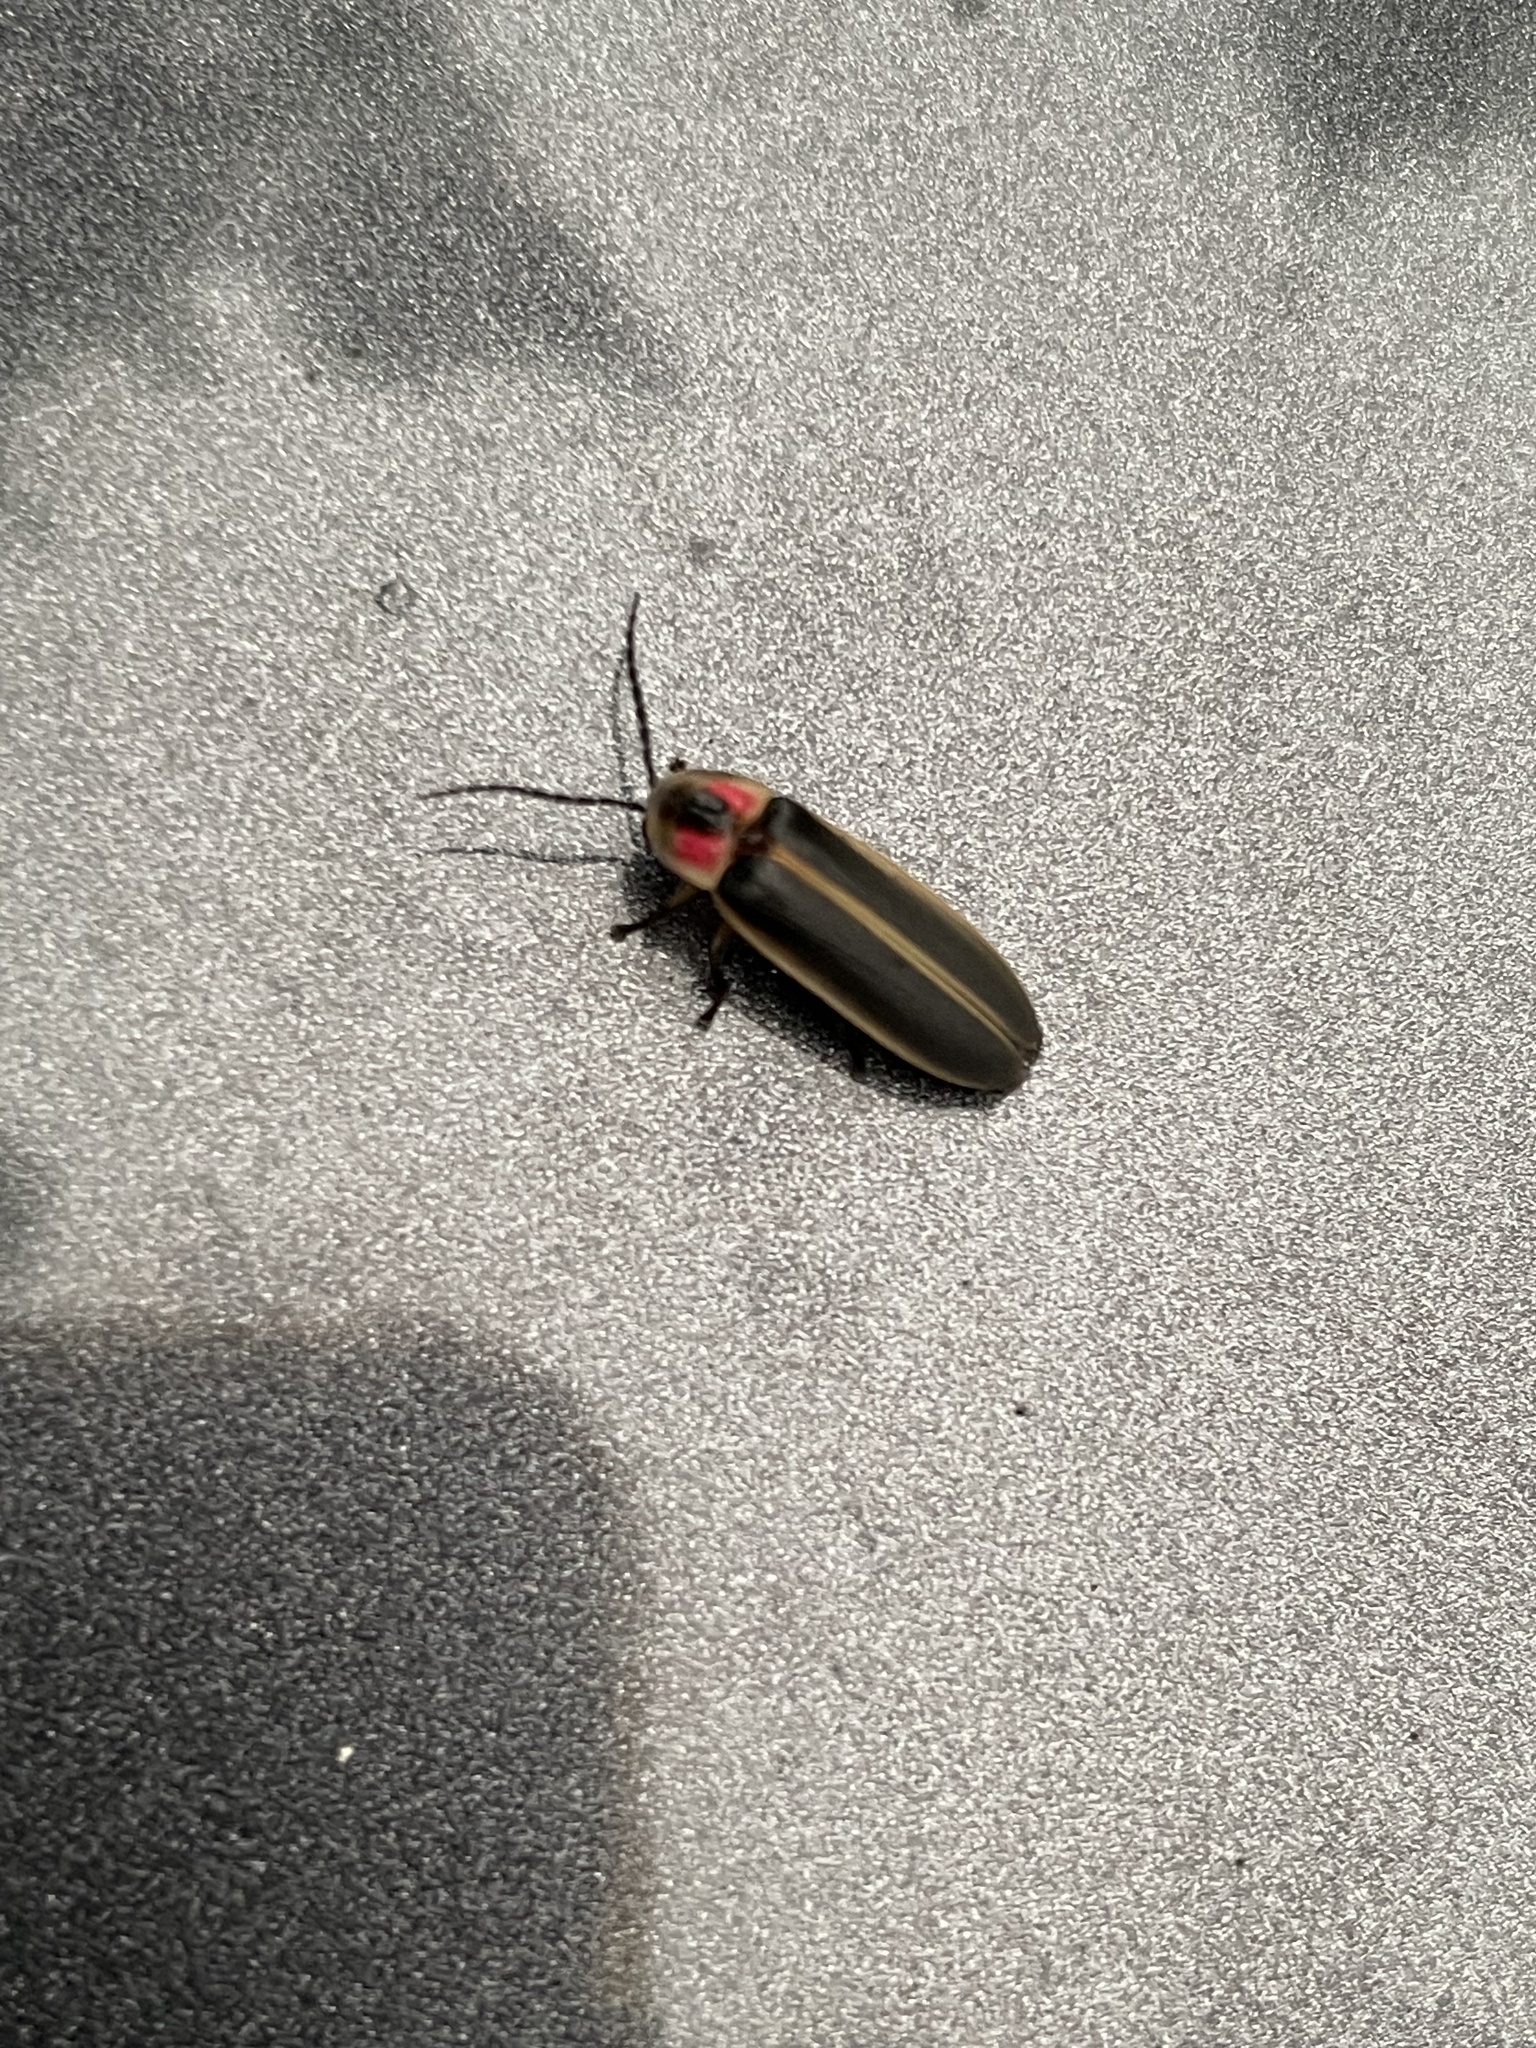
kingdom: Animalia
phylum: Arthropoda
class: Insecta
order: Coleoptera
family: Lampyridae
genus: Photinus
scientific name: Photinus pyralis
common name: Big dipper firefly
